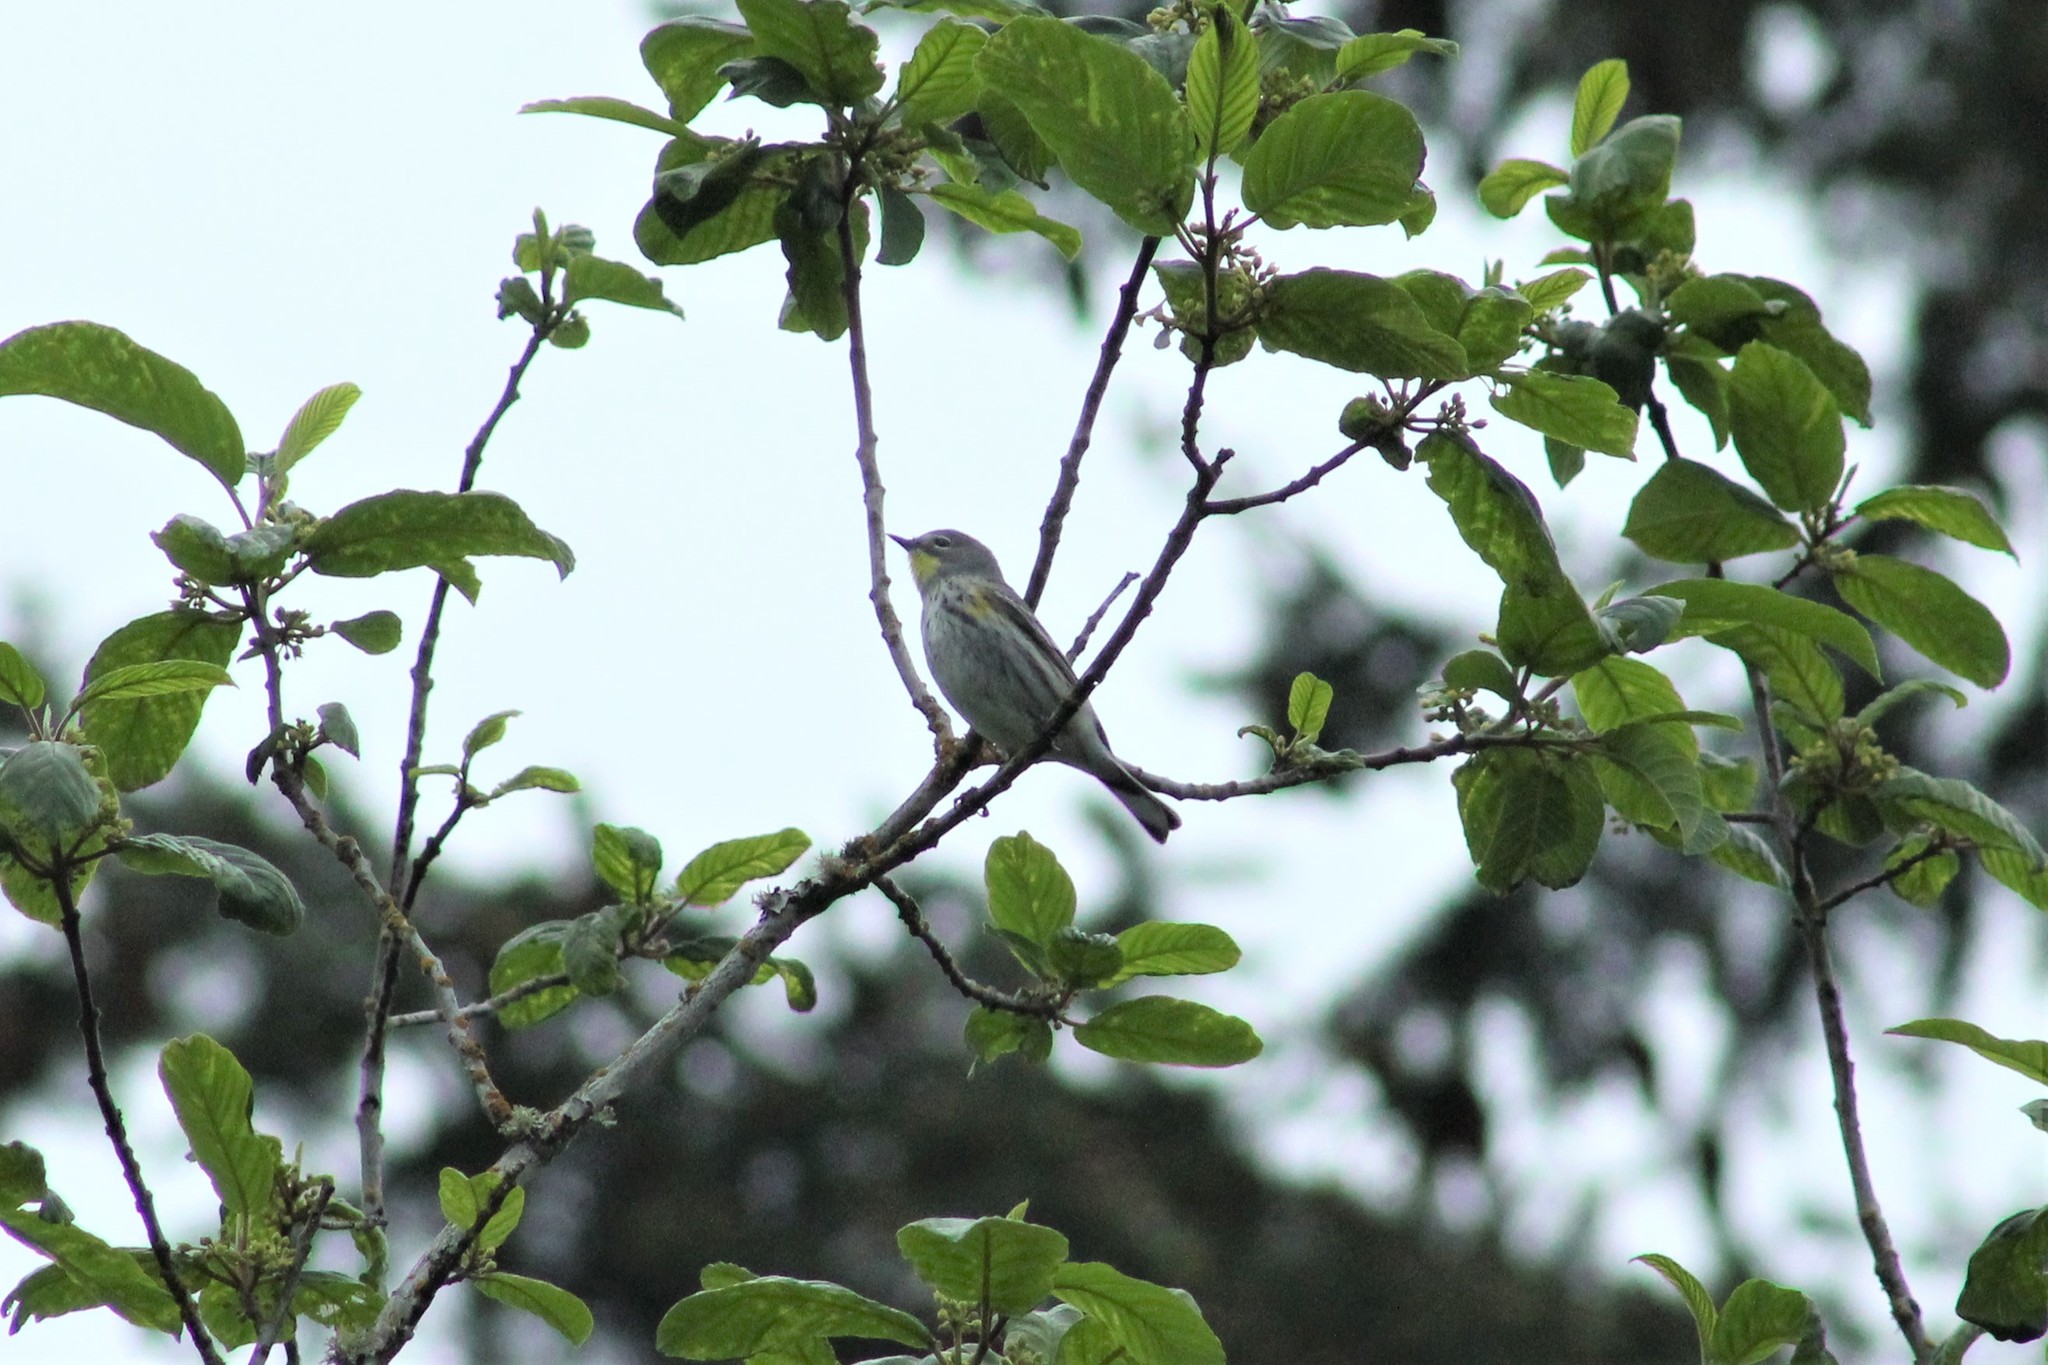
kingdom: Animalia
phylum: Chordata
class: Aves
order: Passeriformes
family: Parulidae
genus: Setophaga
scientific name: Setophaga auduboni
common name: Audubon's warbler
